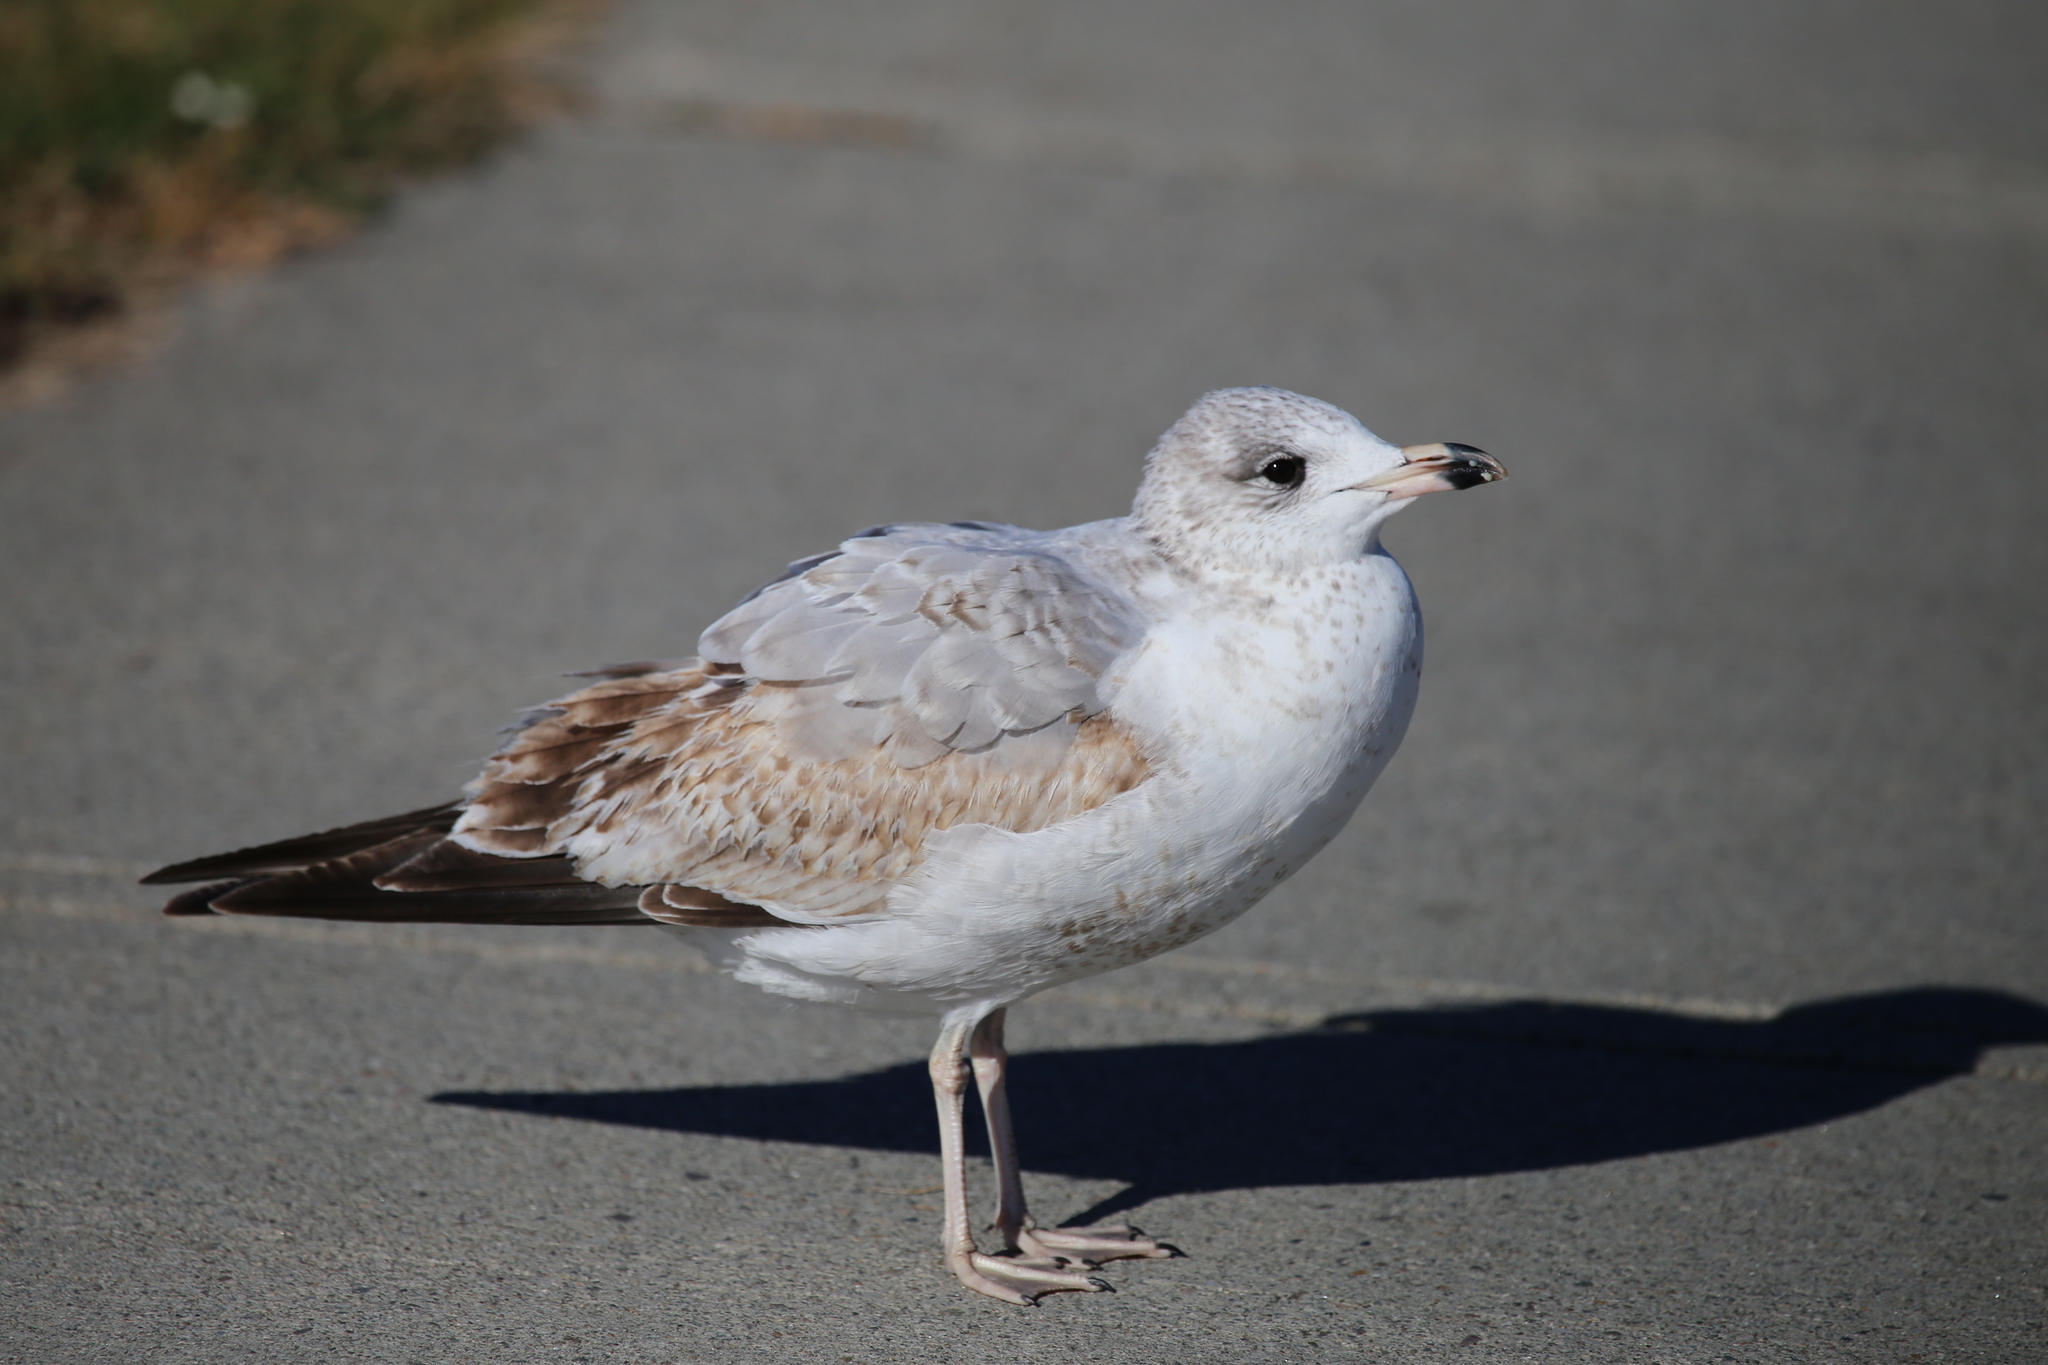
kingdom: Animalia
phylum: Chordata
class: Aves
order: Charadriiformes
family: Laridae
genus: Larus
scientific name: Larus delawarensis
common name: Ring-billed gull
